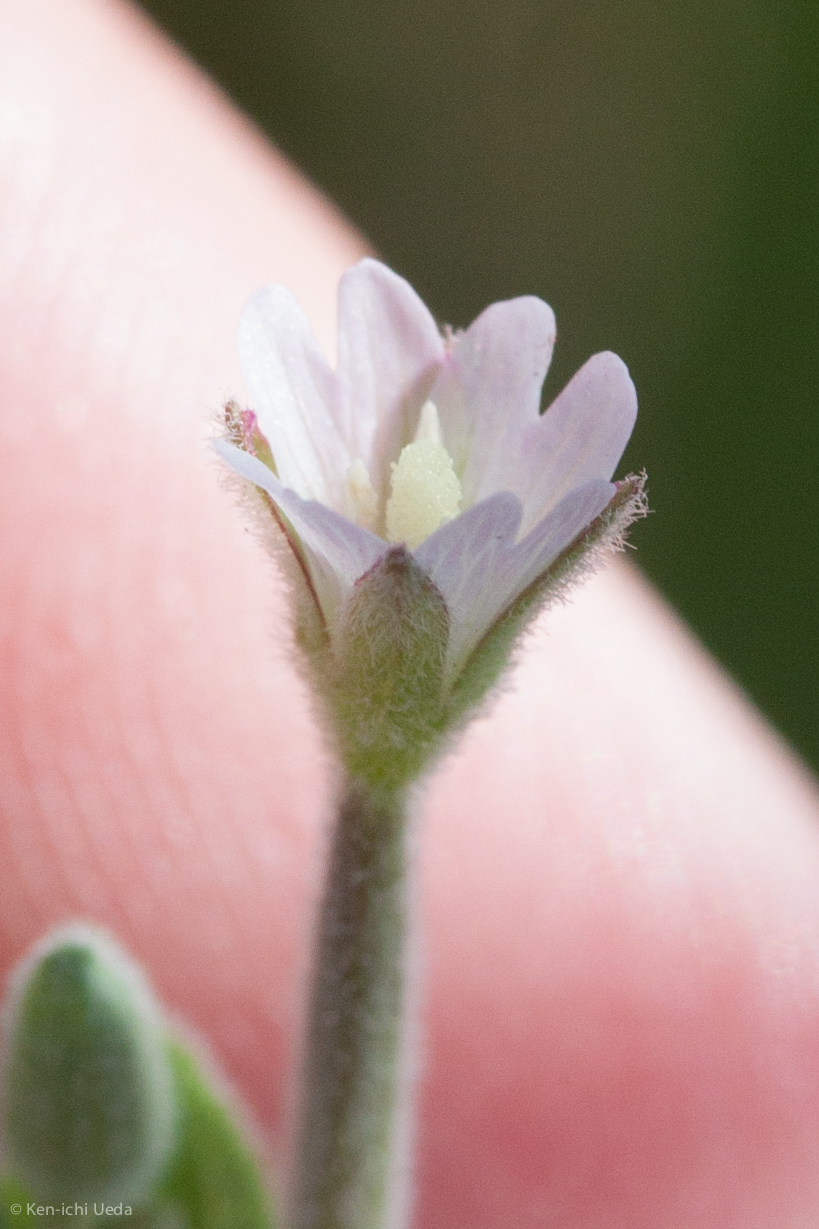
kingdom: Plantae
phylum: Tracheophyta
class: Magnoliopsida
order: Myrtales
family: Onagraceae
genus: Epilobium
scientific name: Epilobium ciliatum
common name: American willowherb
